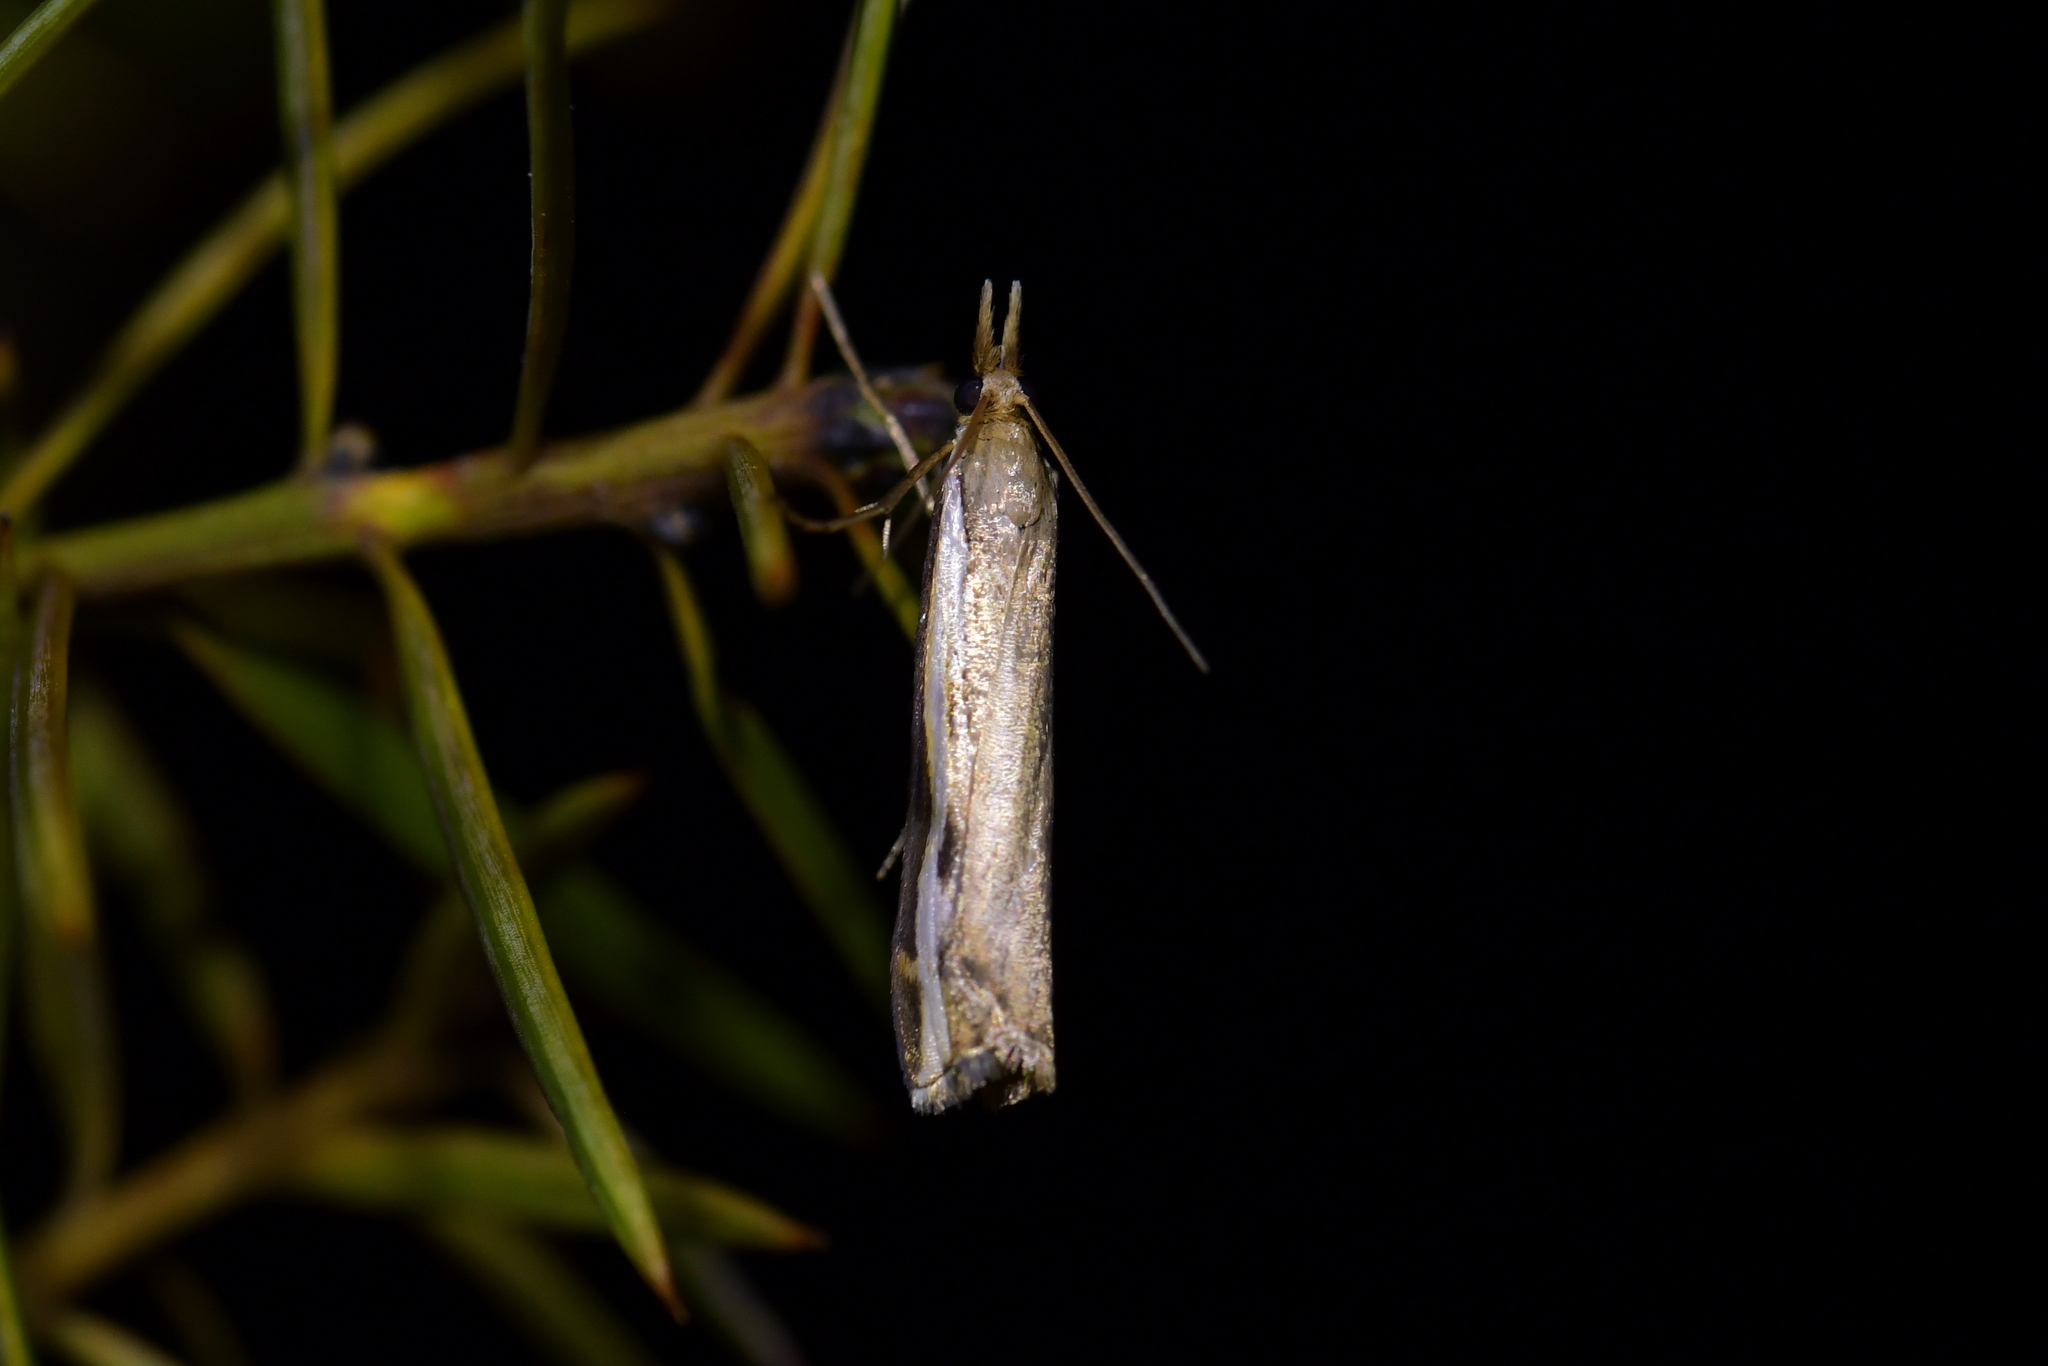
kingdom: Animalia
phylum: Arthropoda
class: Insecta
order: Lepidoptera
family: Crambidae
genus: Orocrambus
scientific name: Orocrambus flexuosellus
